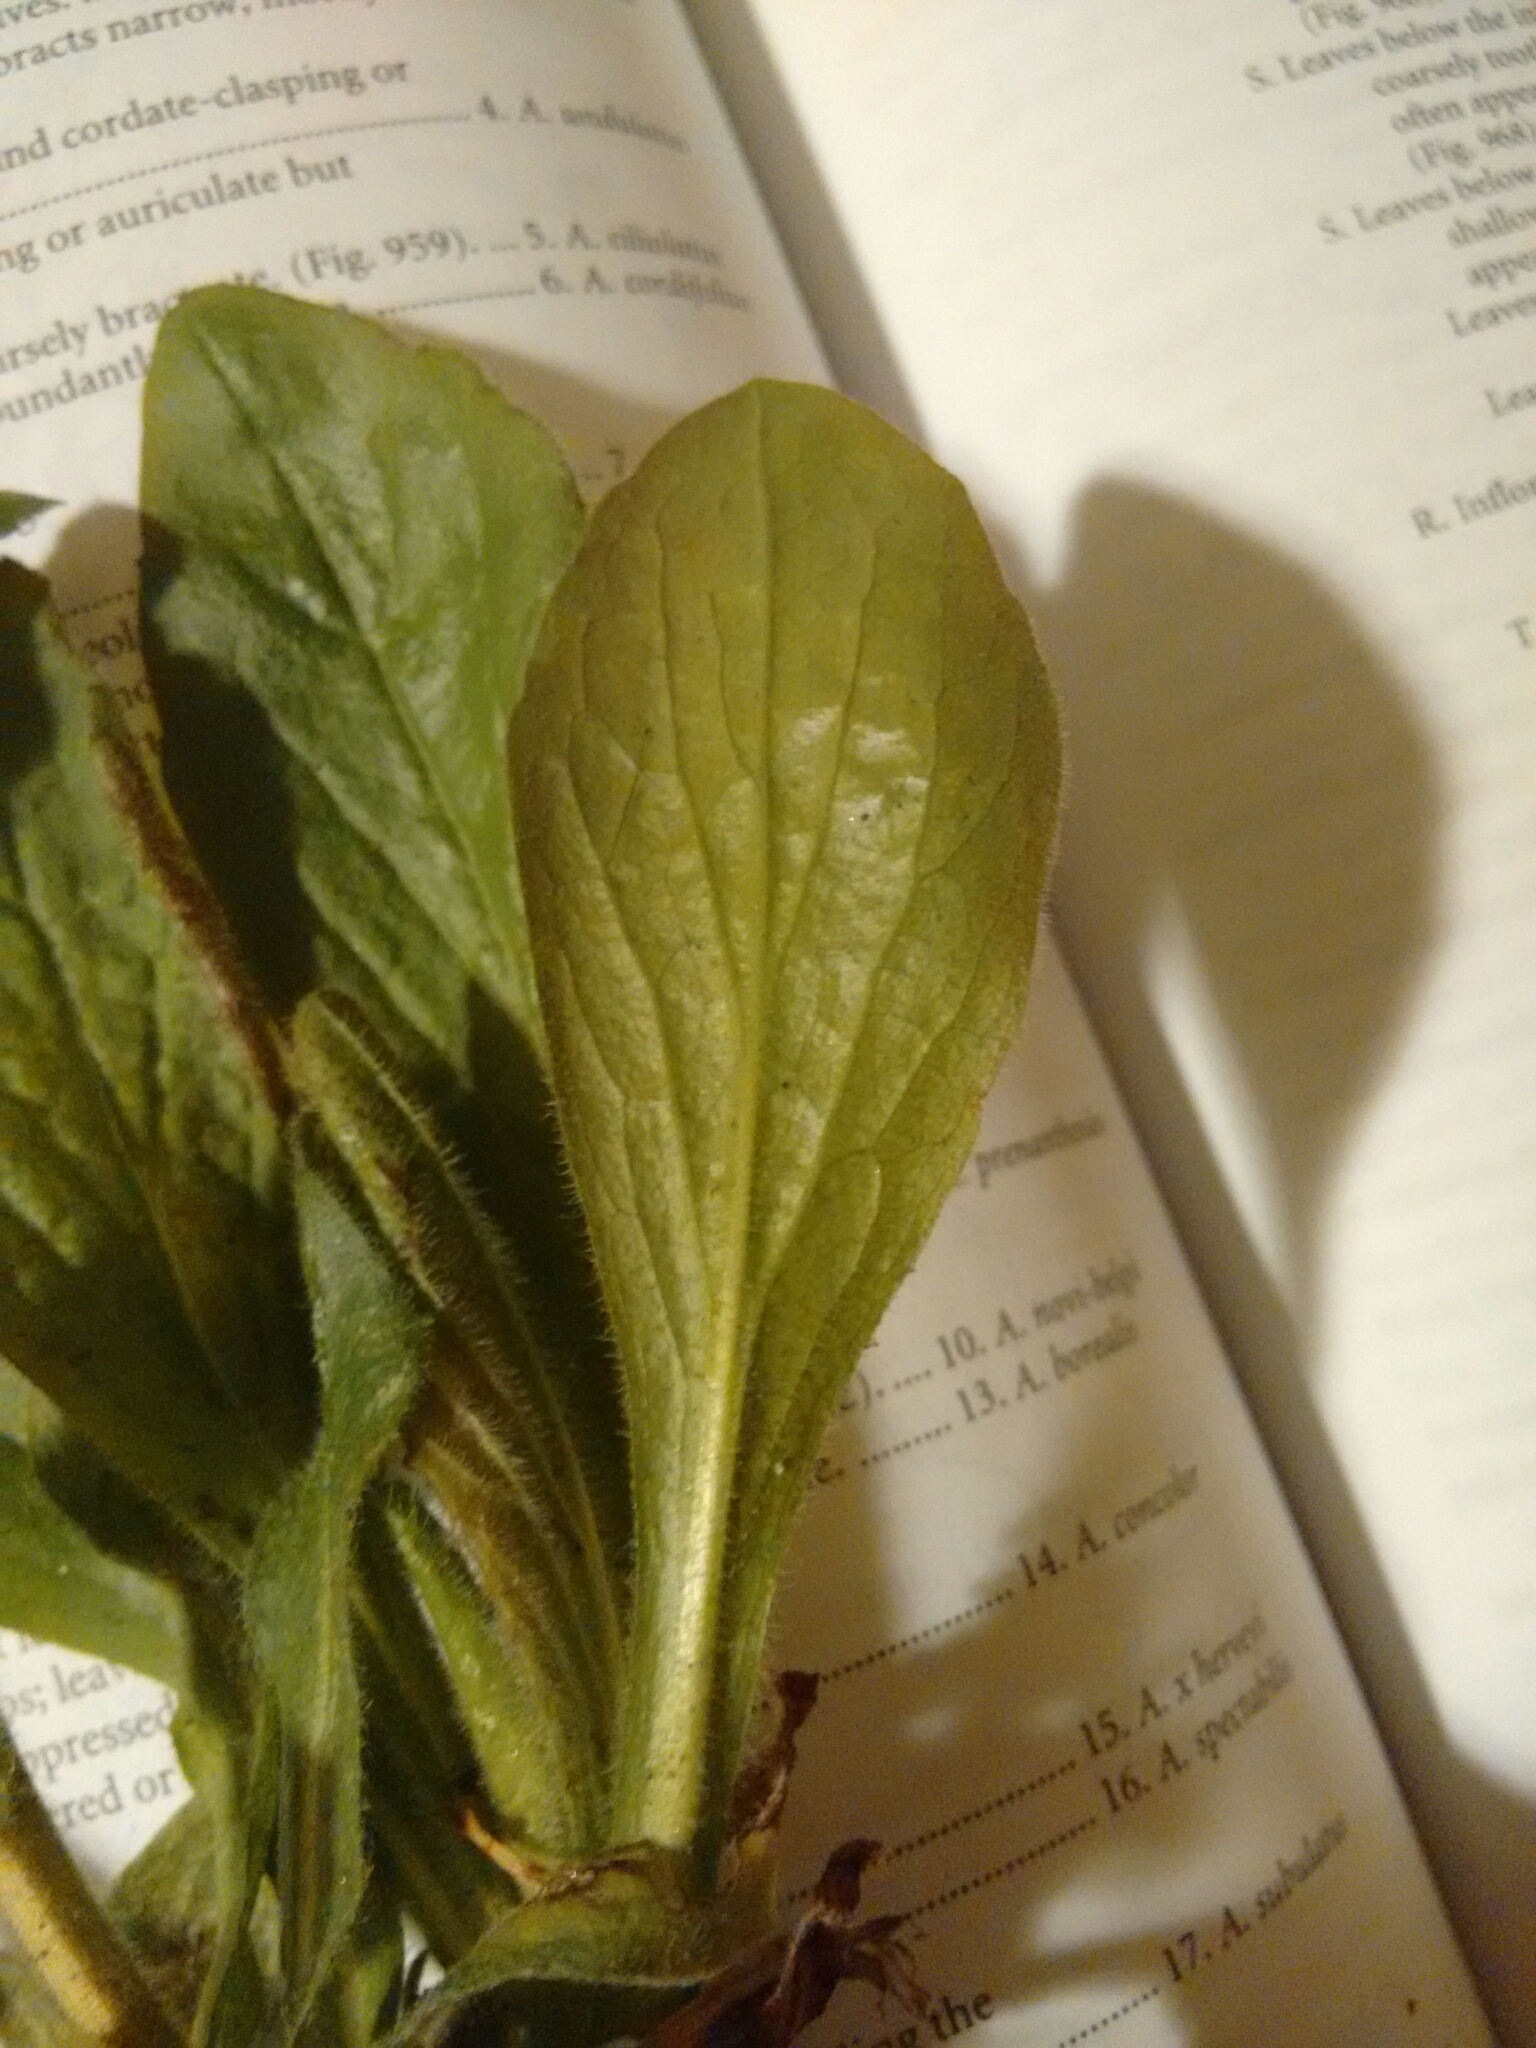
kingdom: Plantae
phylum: Tracheophyta
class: Magnoliopsida
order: Asterales
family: Asteraceae
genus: Erigeron
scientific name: Erigeron annuus
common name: Tall fleabane
